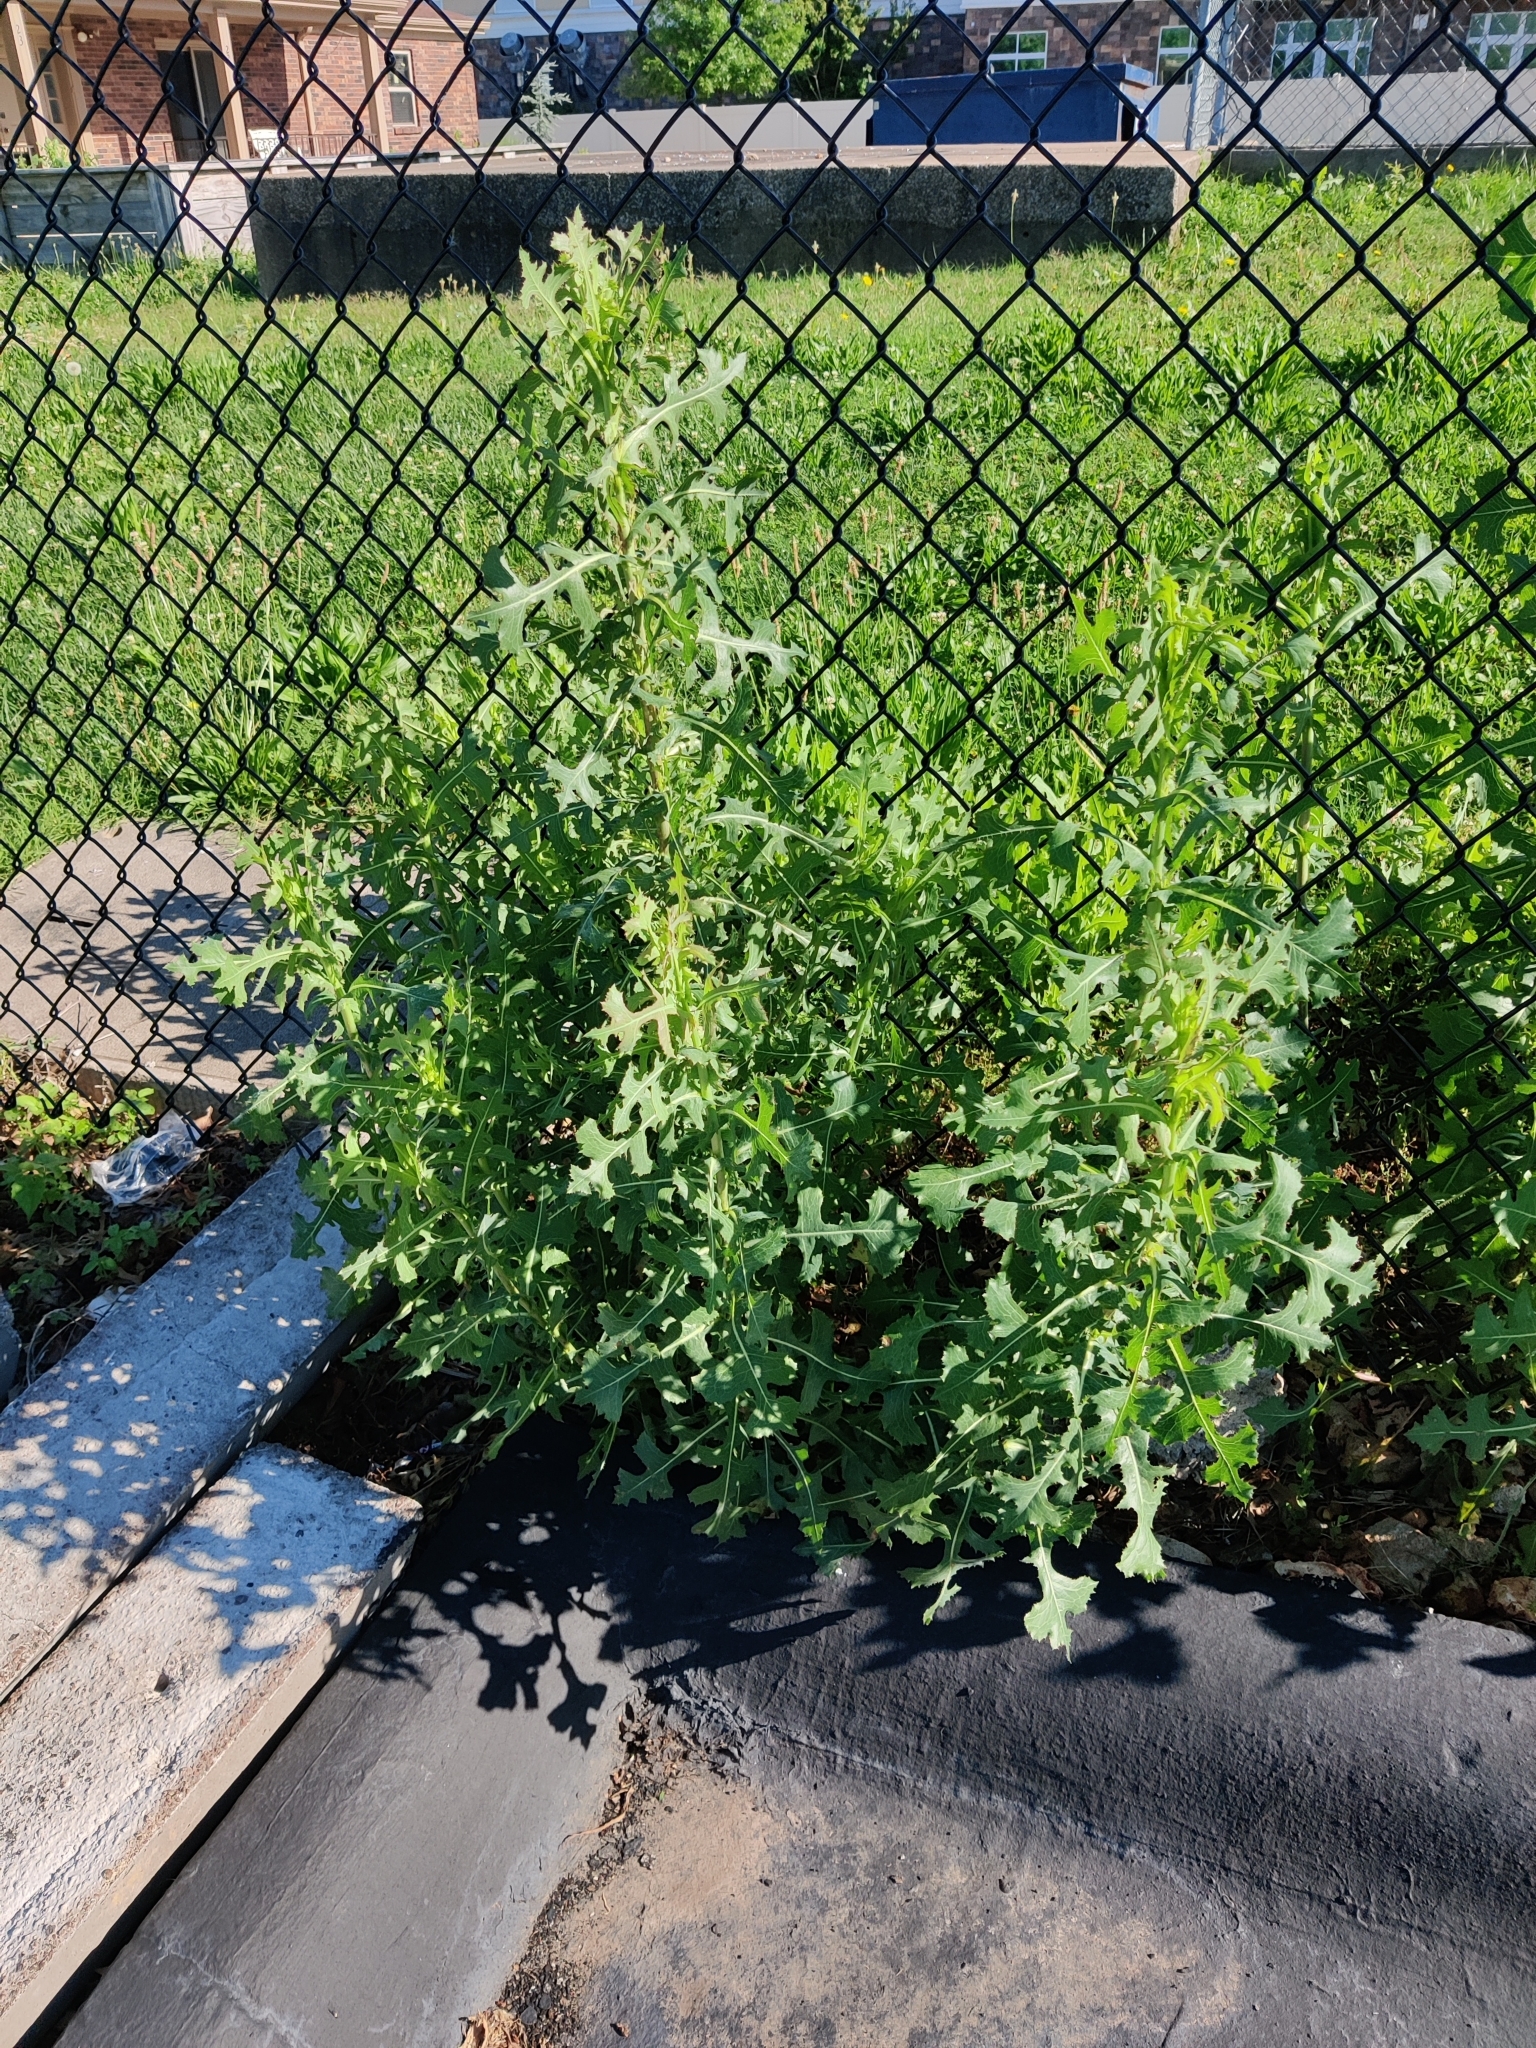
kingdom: Plantae
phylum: Tracheophyta
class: Magnoliopsida
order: Asterales
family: Asteraceae
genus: Lactuca
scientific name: Lactuca serriola
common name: Prickly lettuce
